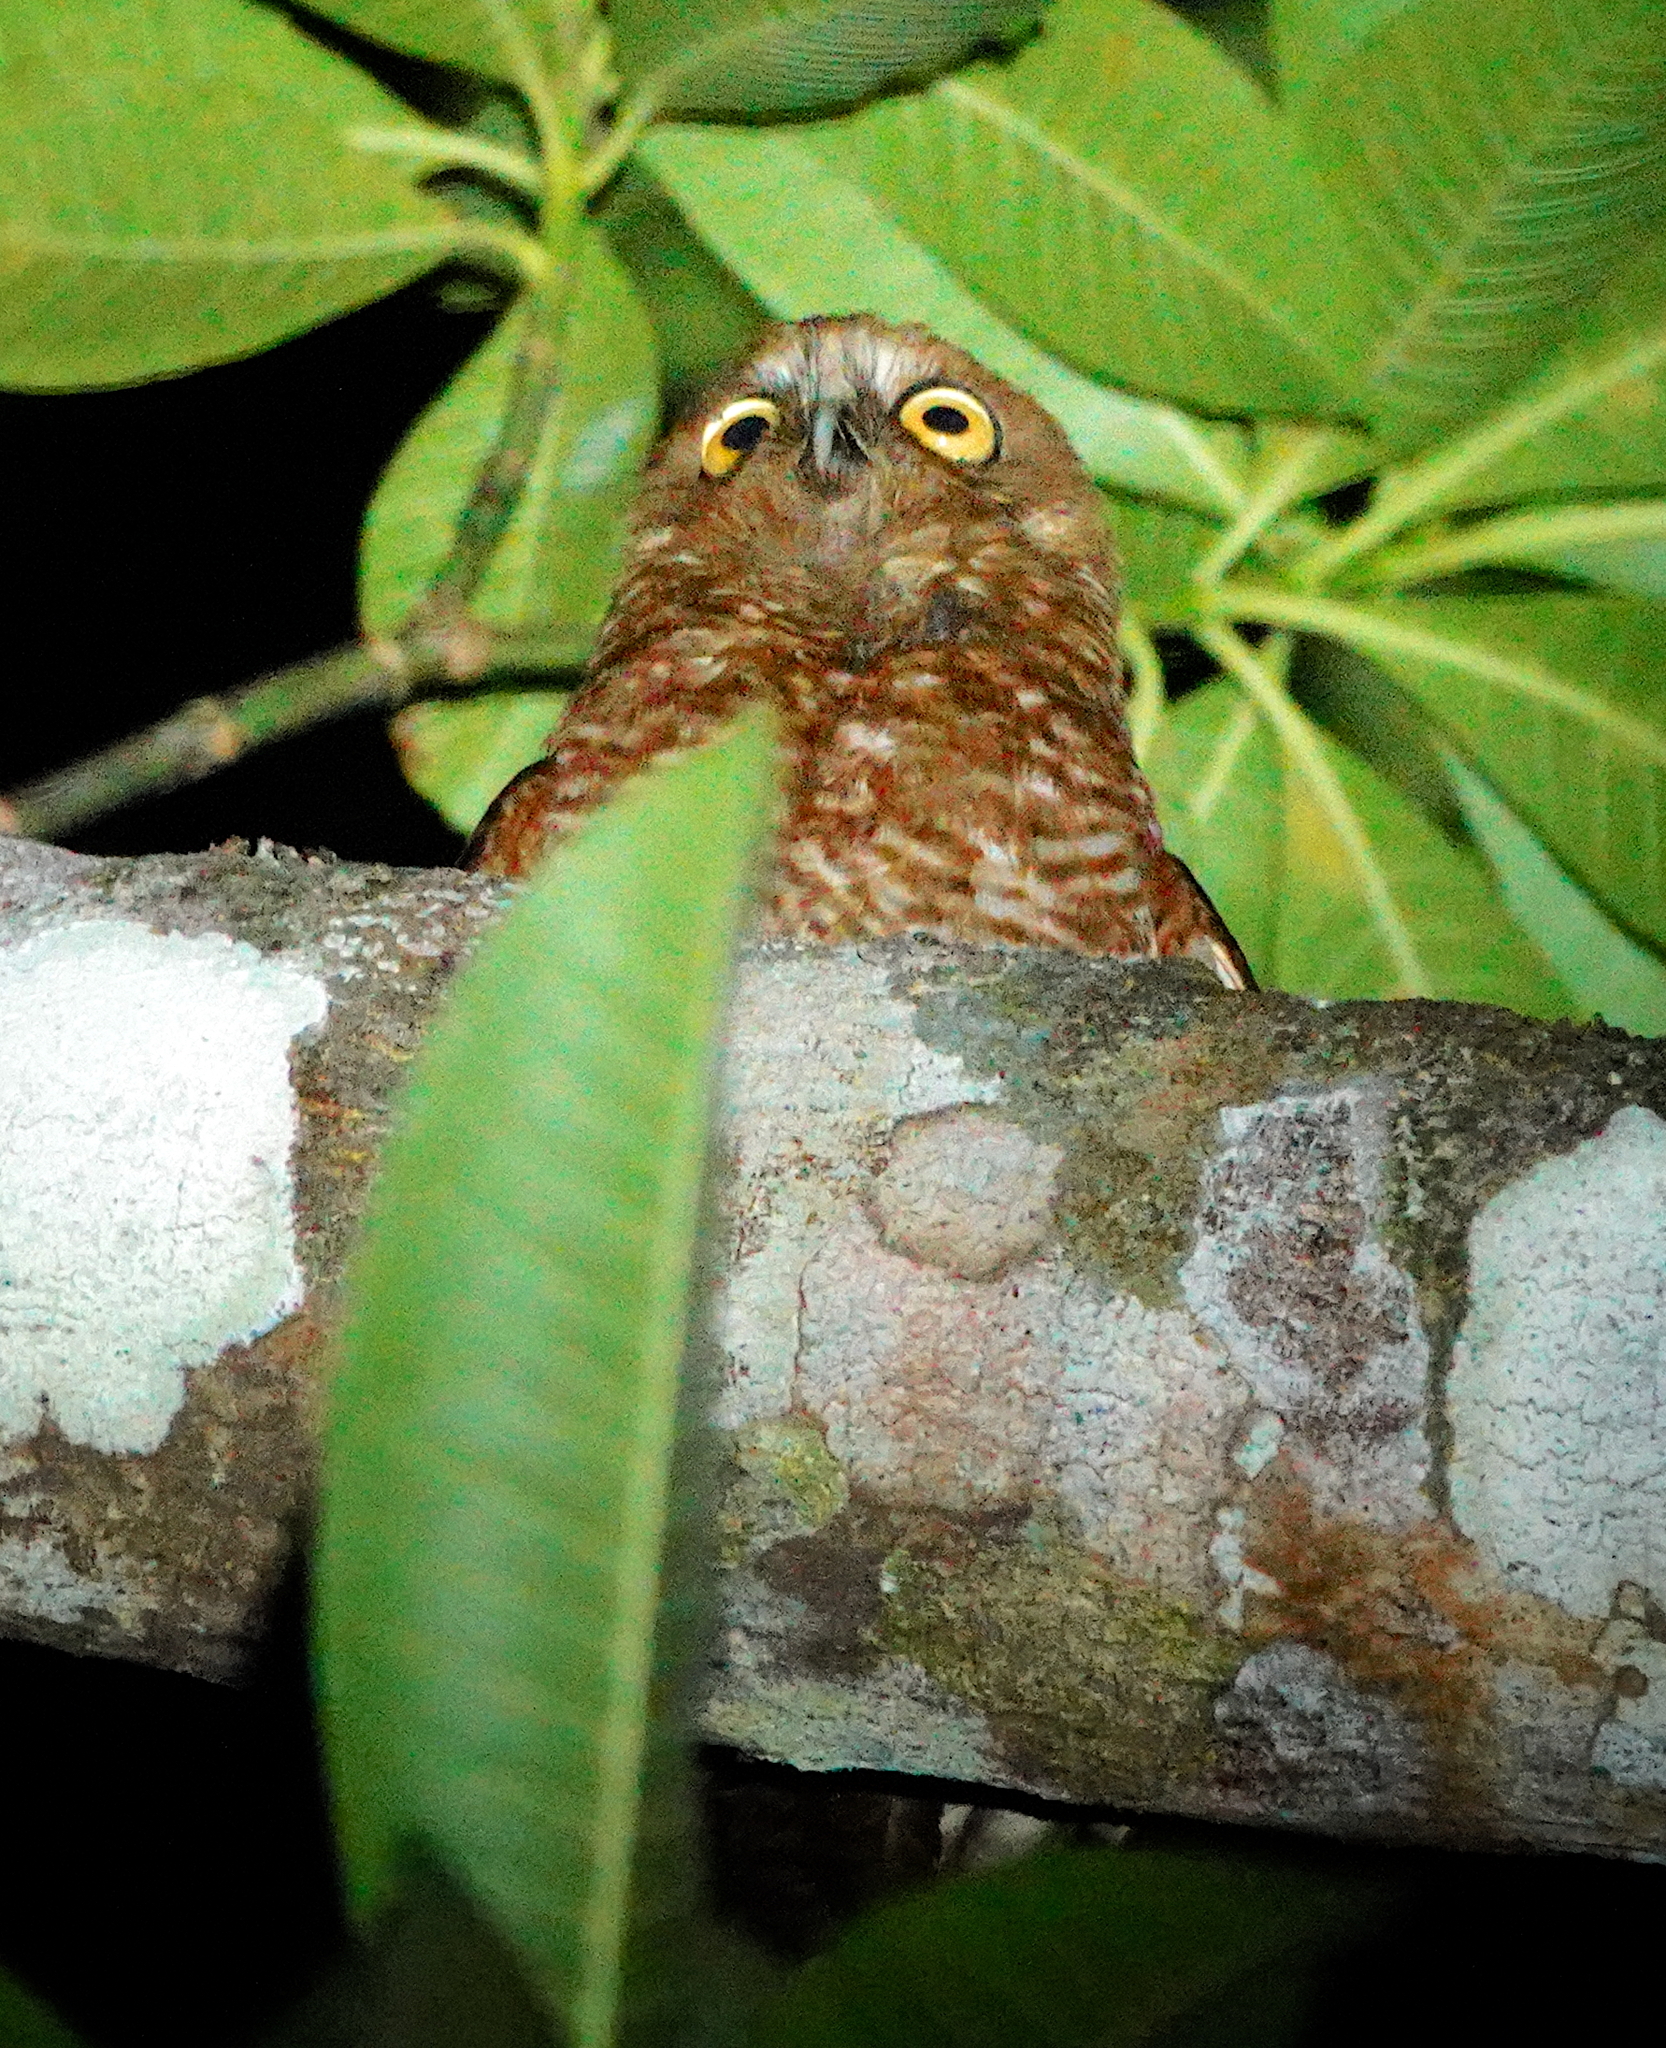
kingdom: Animalia
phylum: Chordata
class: Aves
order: Strigiformes
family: Strigidae
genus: Ninox
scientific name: Ninox forbesi
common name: Tanimbar boobook
